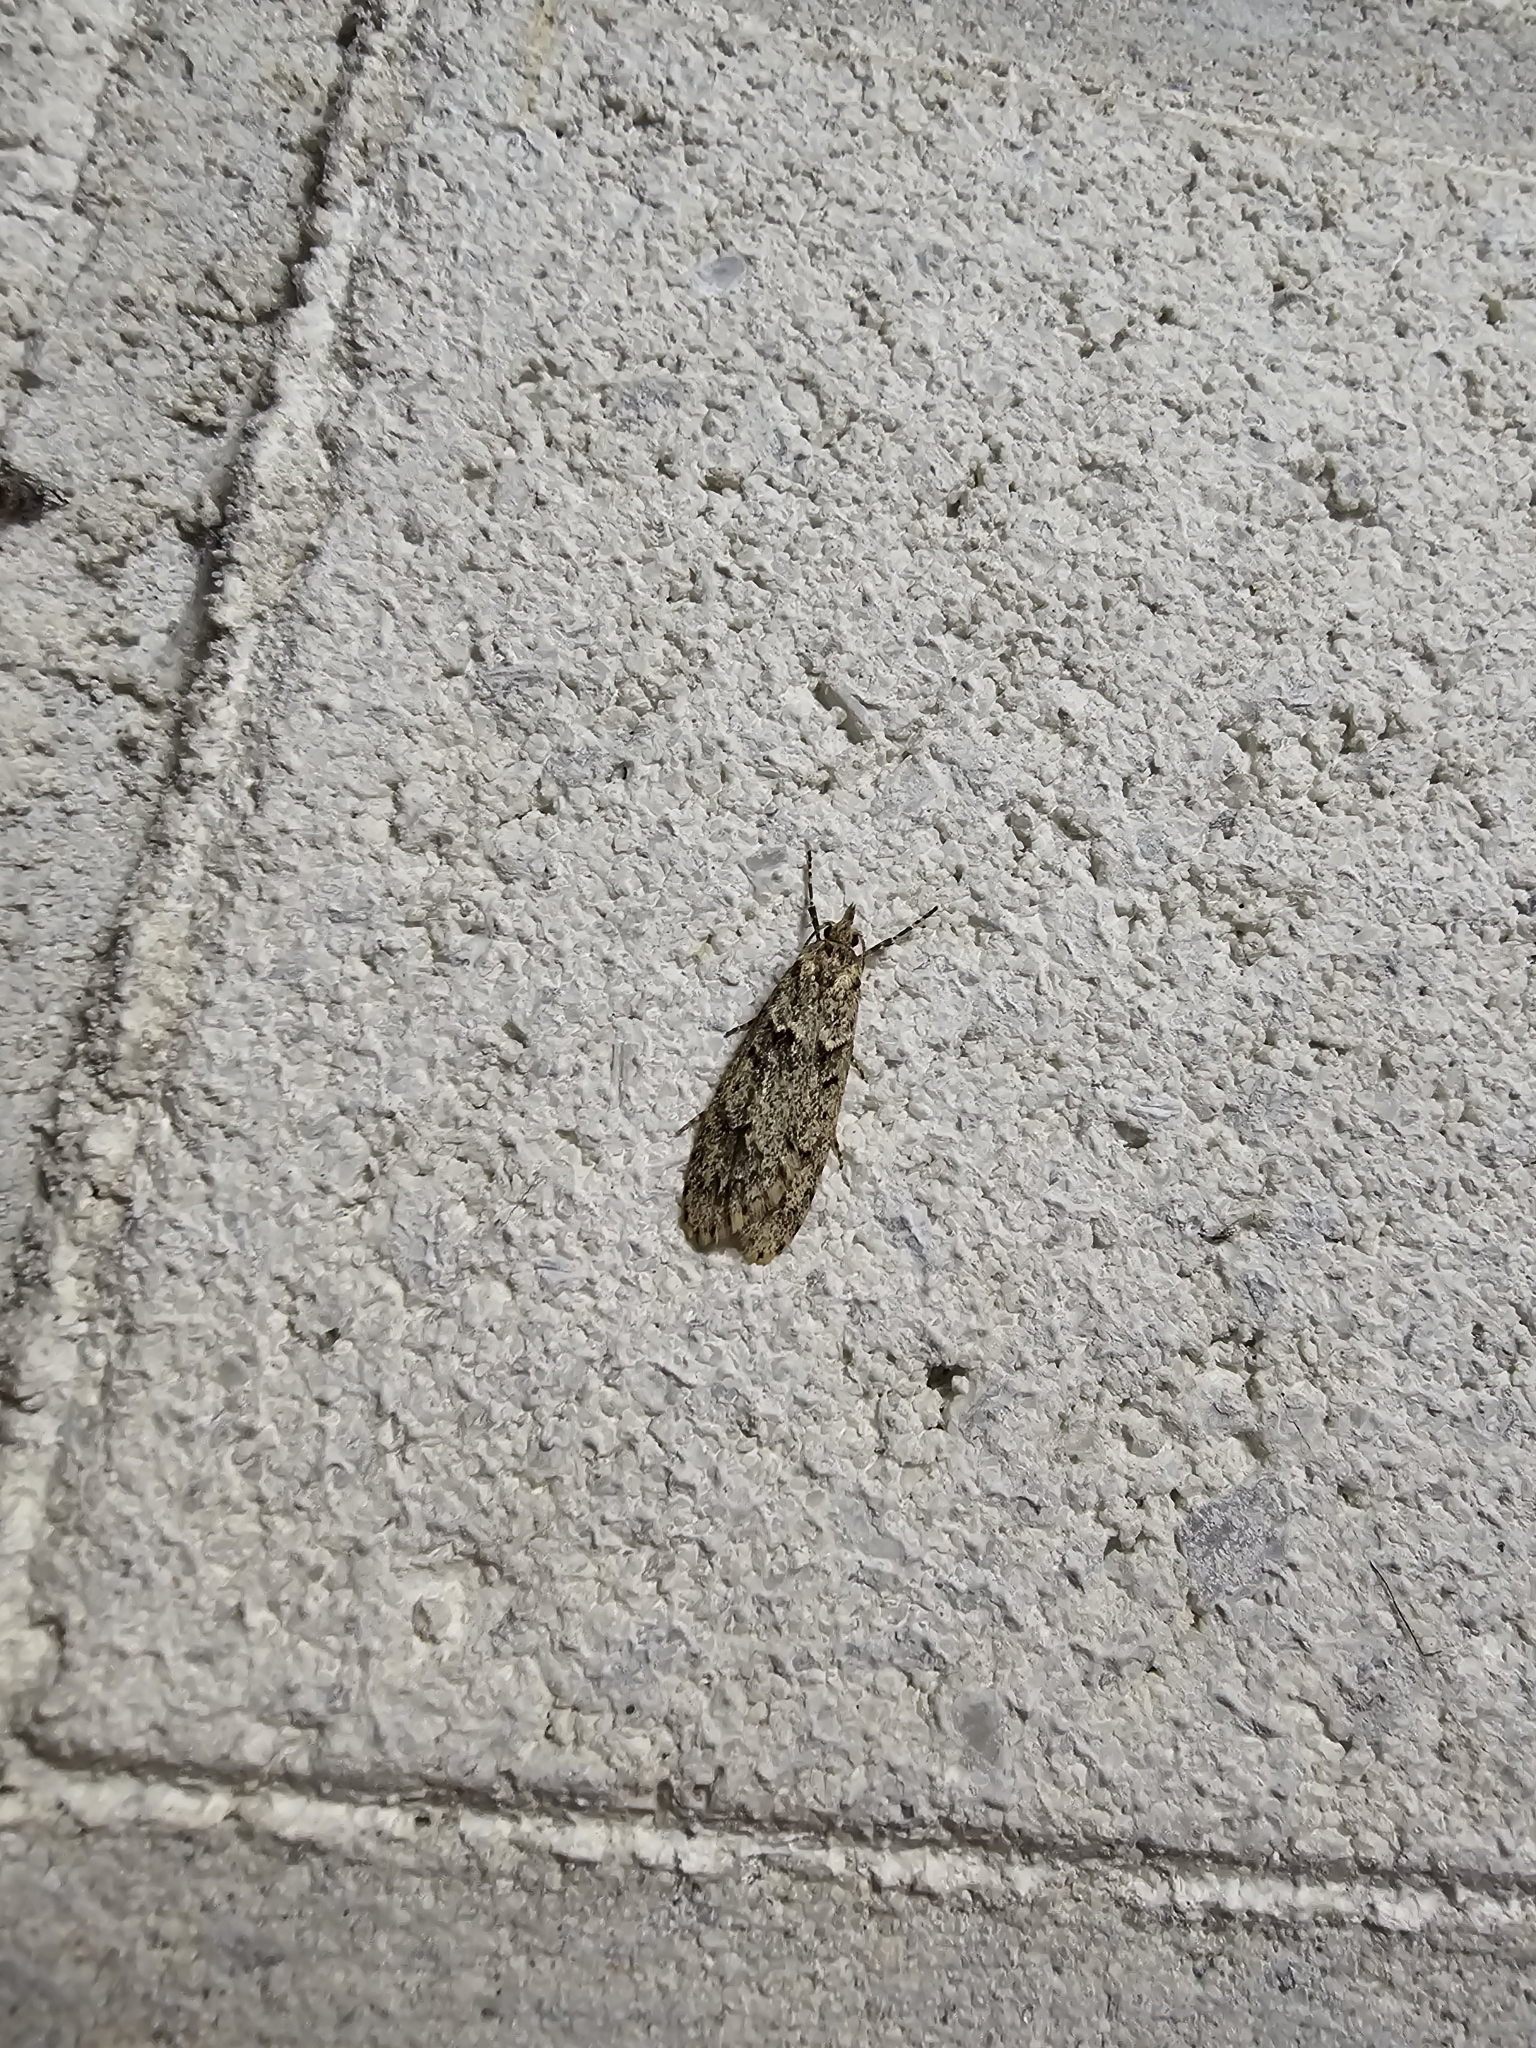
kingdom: Animalia
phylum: Arthropoda
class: Insecta
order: Lepidoptera
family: Lypusidae
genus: Diurnea
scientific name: Diurnea fagella
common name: March tubic
